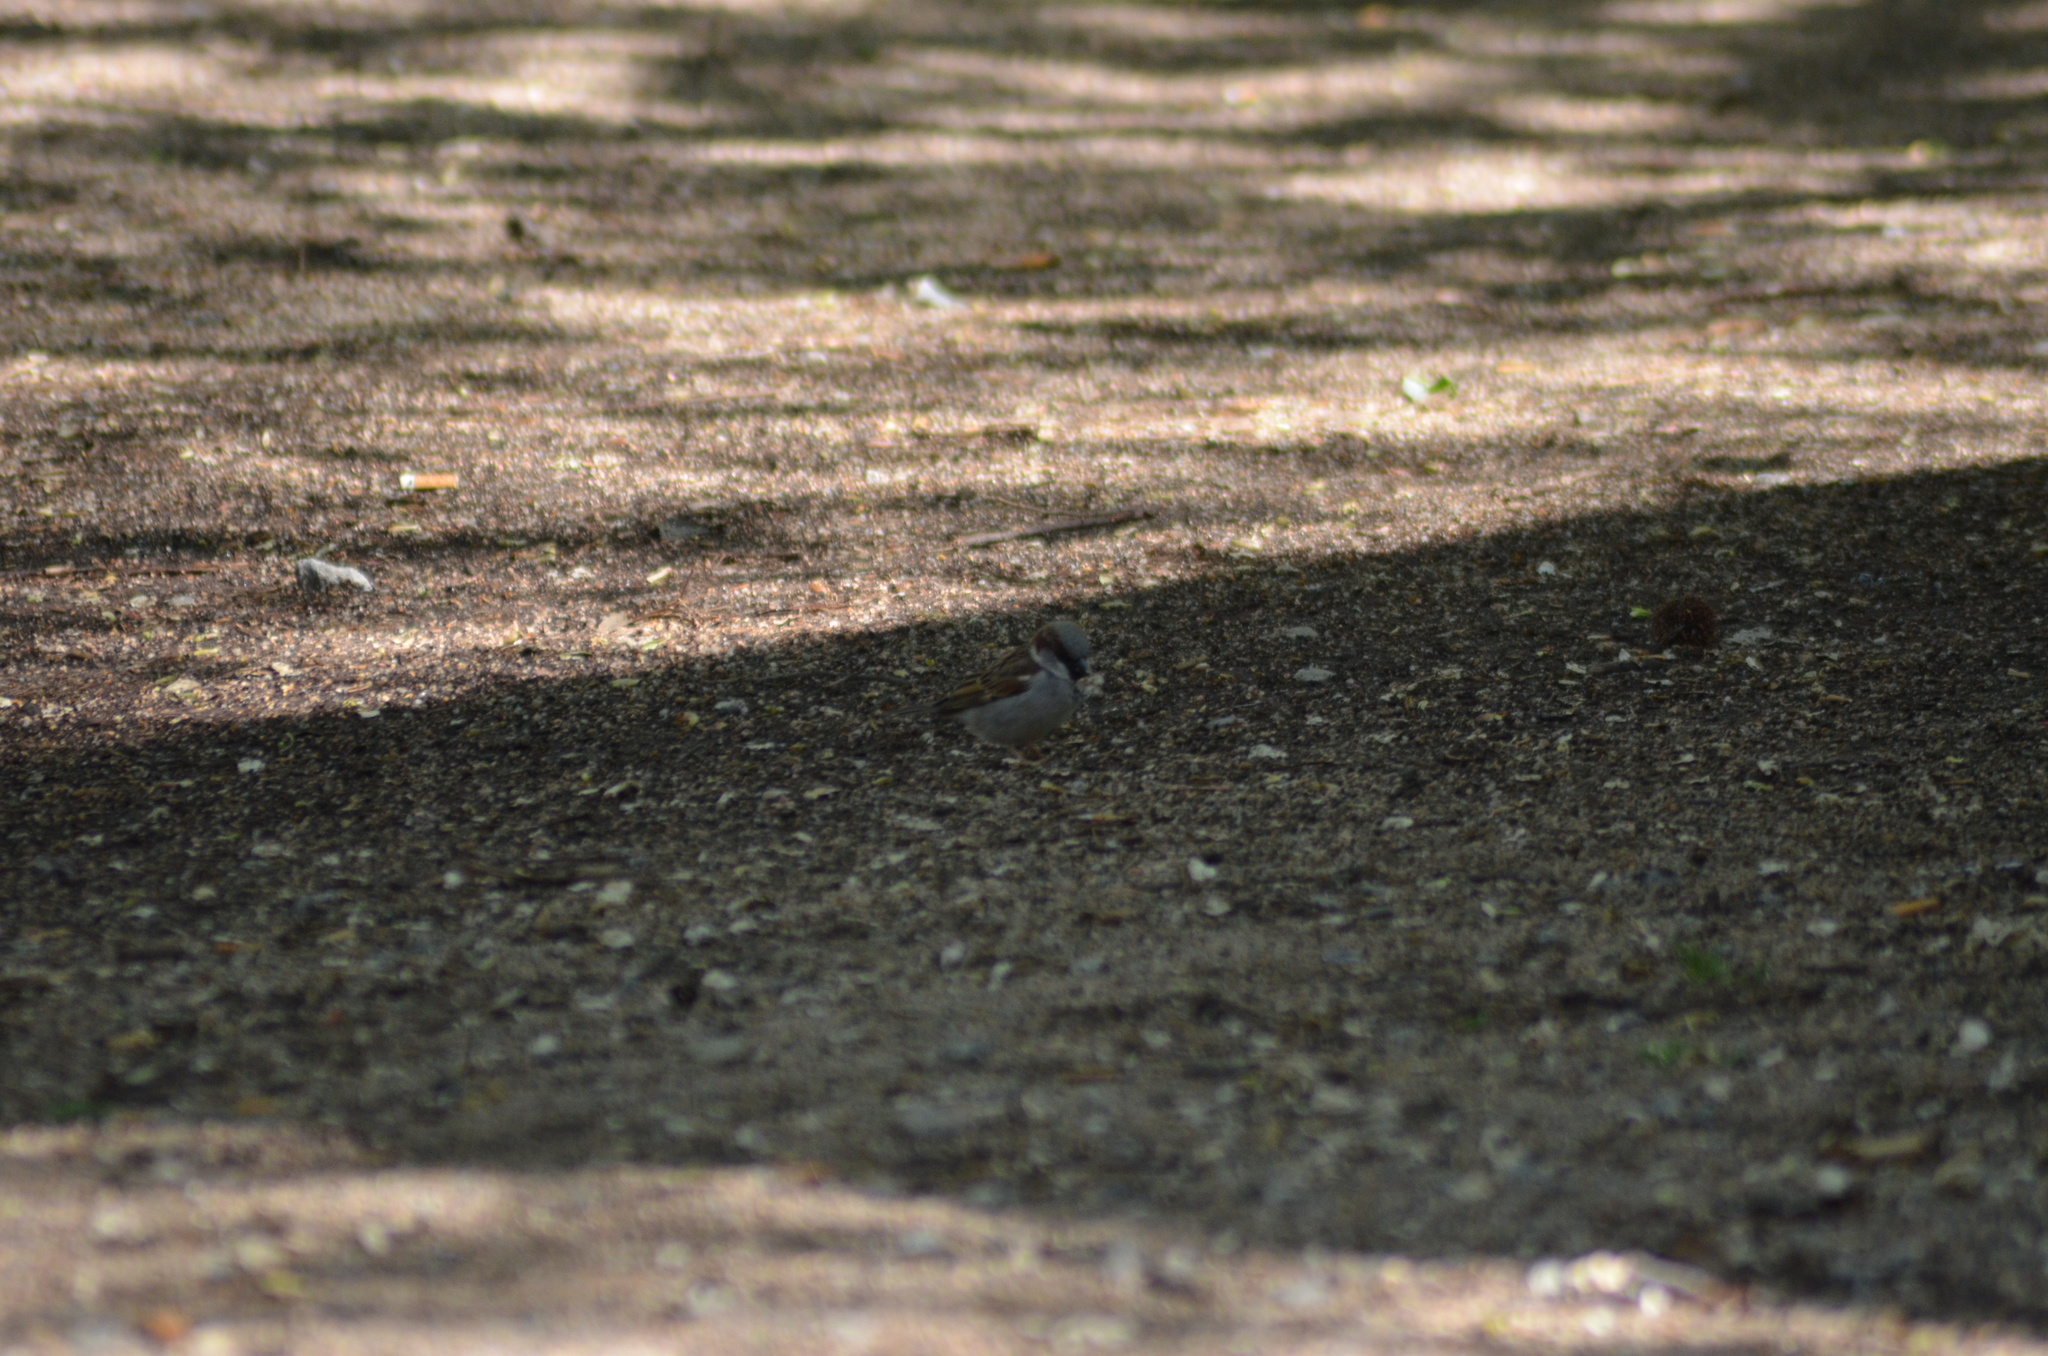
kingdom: Animalia
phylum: Chordata
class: Aves
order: Passeriformes
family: Passeridae
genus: Passer
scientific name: Passer domesticus
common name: House sparrow
